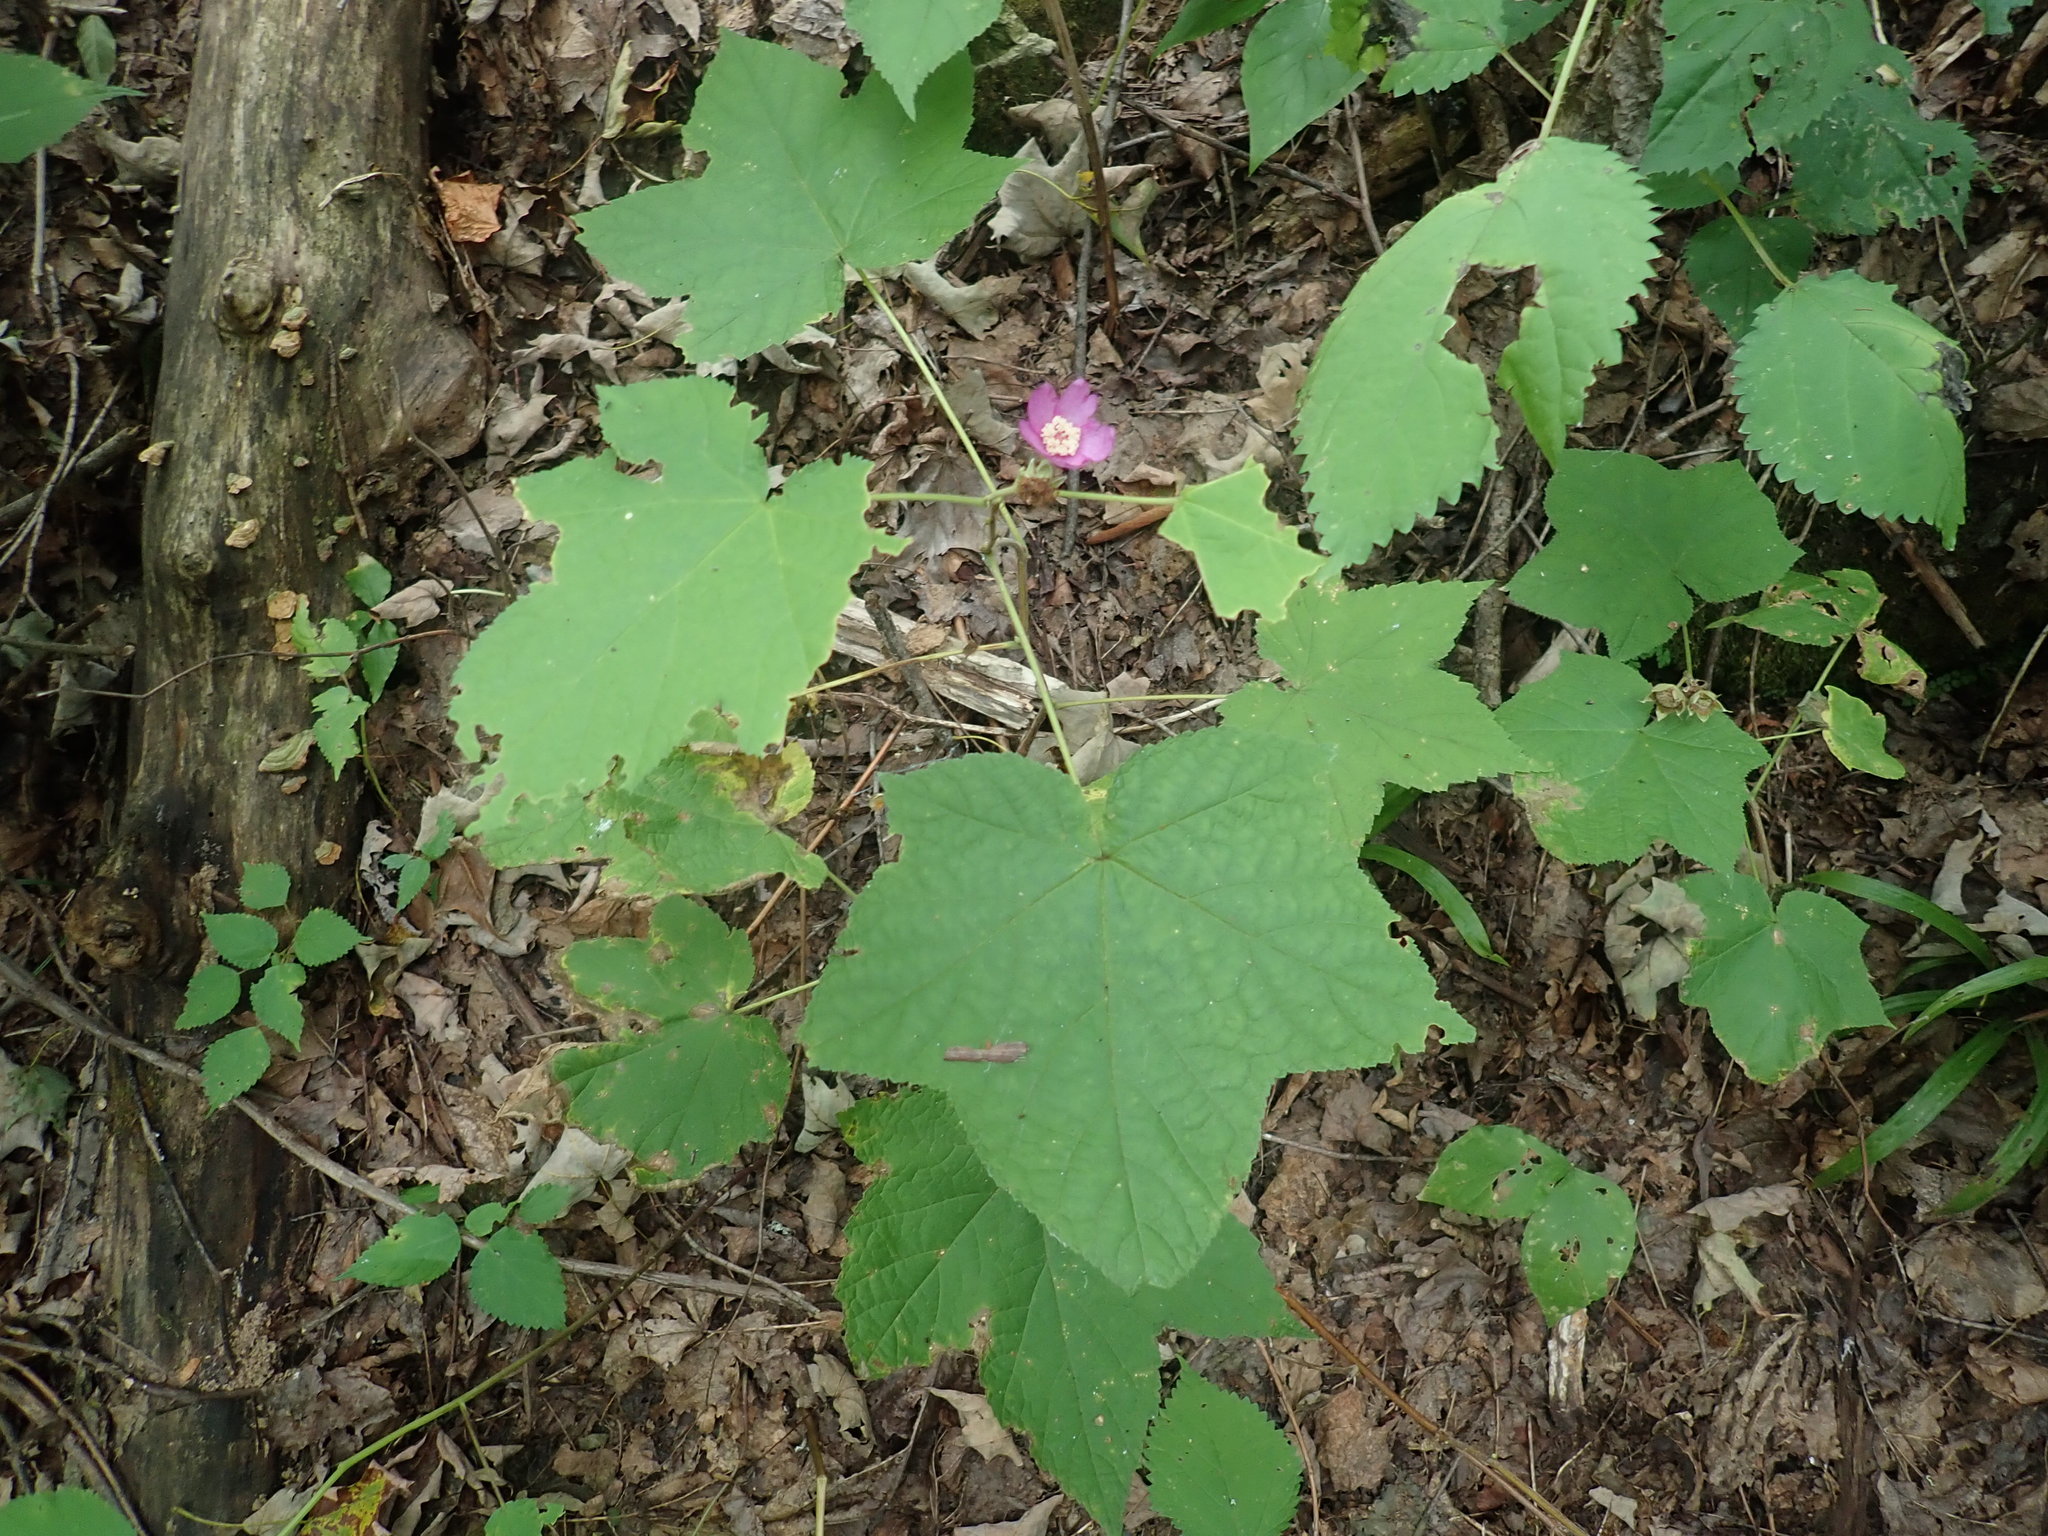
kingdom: Plantae
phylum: Tracheophyta
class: Magnoliopsida
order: Rosales
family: Rosaceae
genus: Rubus
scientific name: Rubus odoratus
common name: Purple-flowered raspberry
